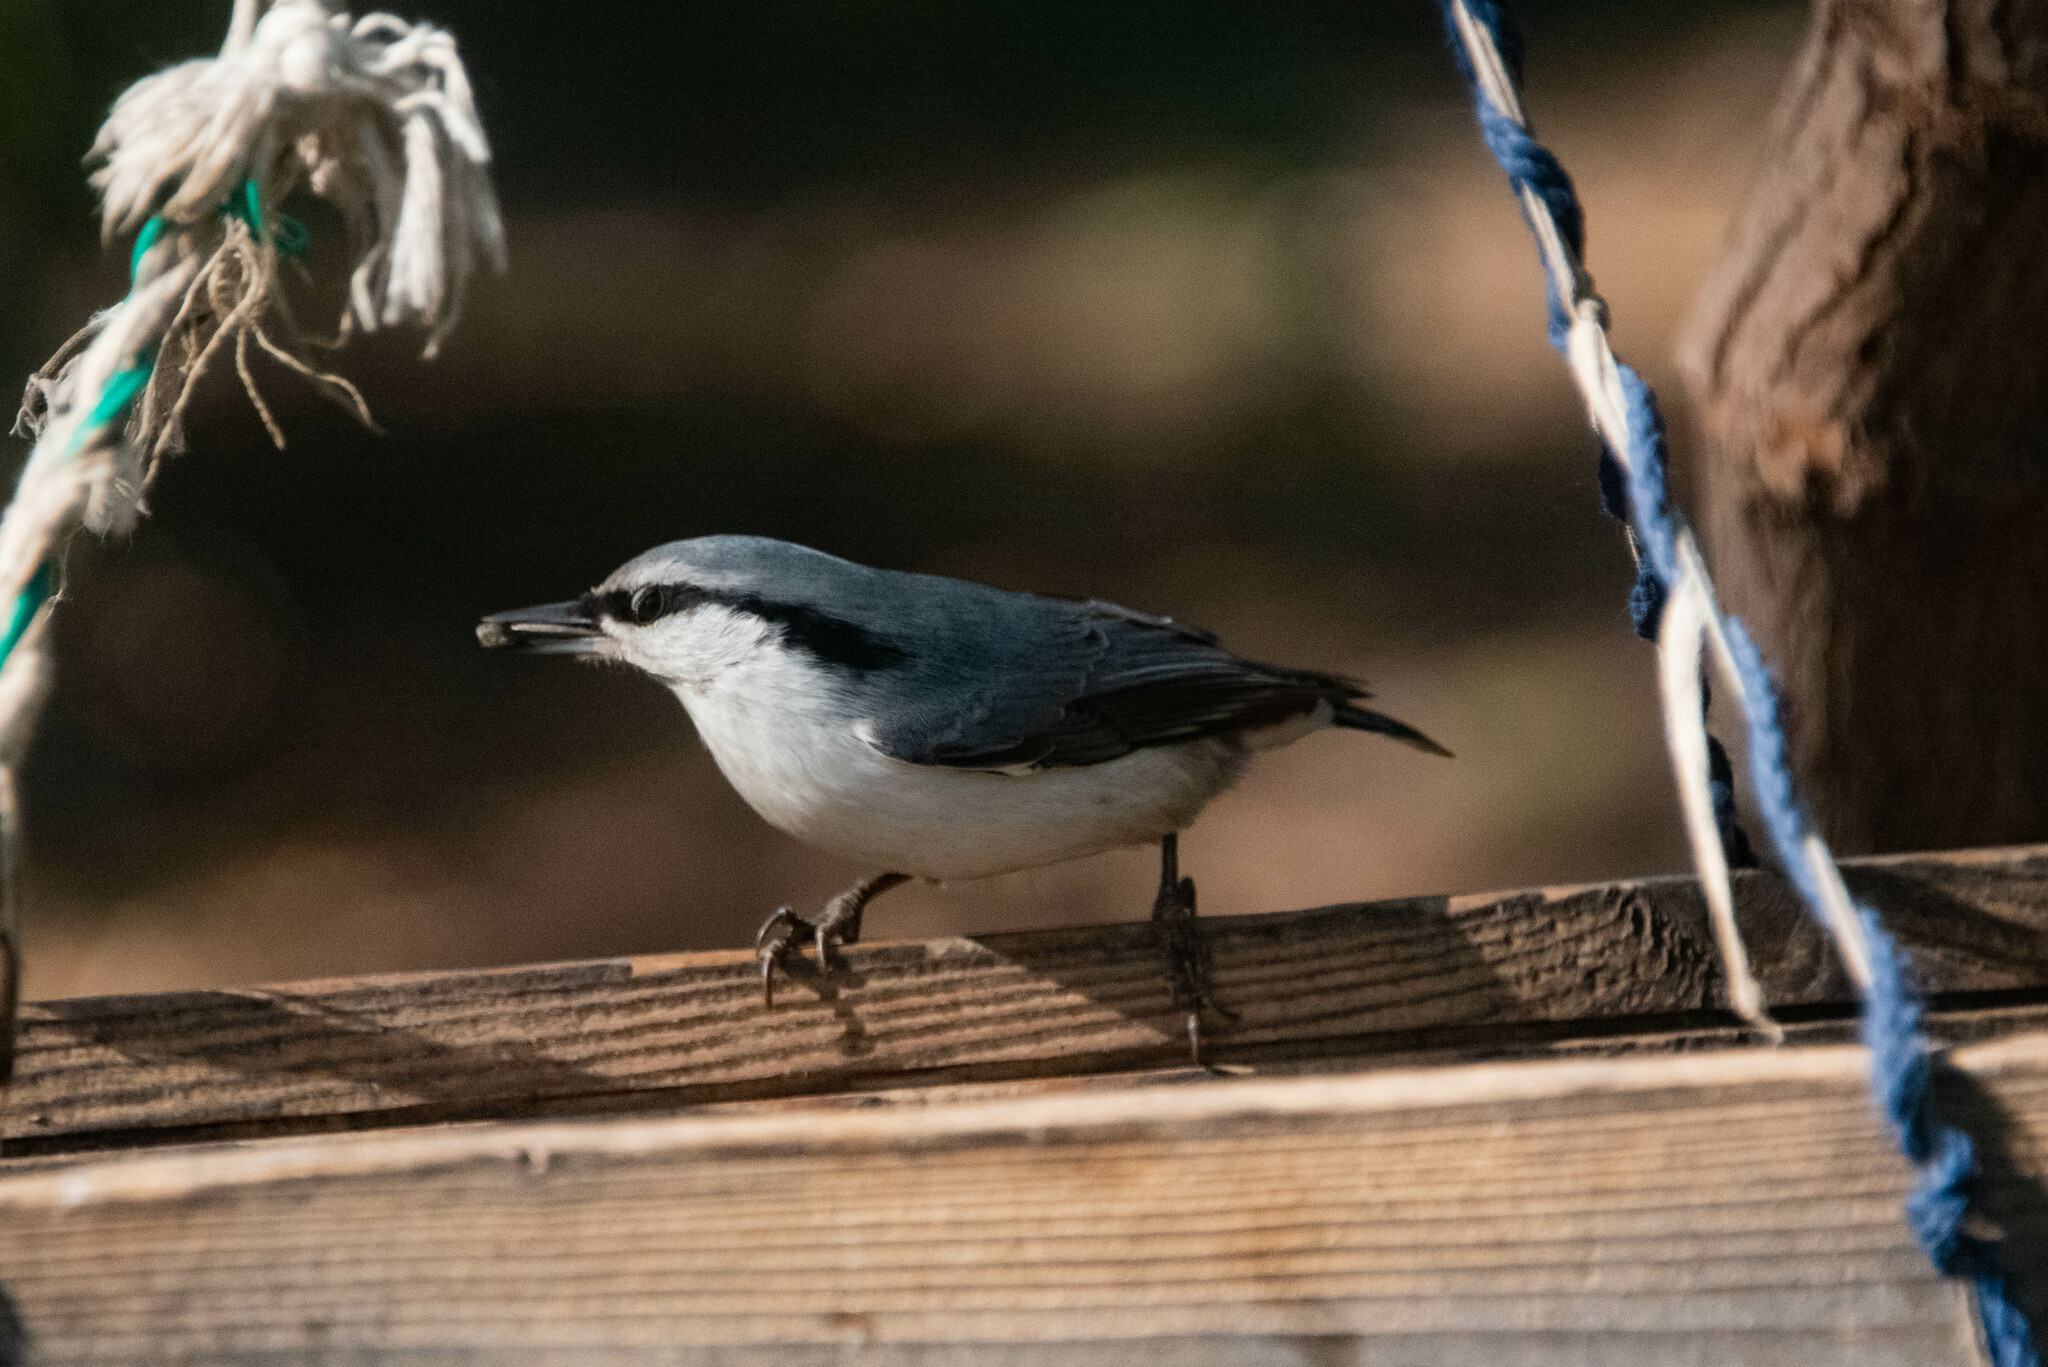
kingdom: Animalia
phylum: Chordata
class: Aves
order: Passeriformes
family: Sittidae
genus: Sitta
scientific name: Sitta europaea
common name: Eurasian nuthatch
